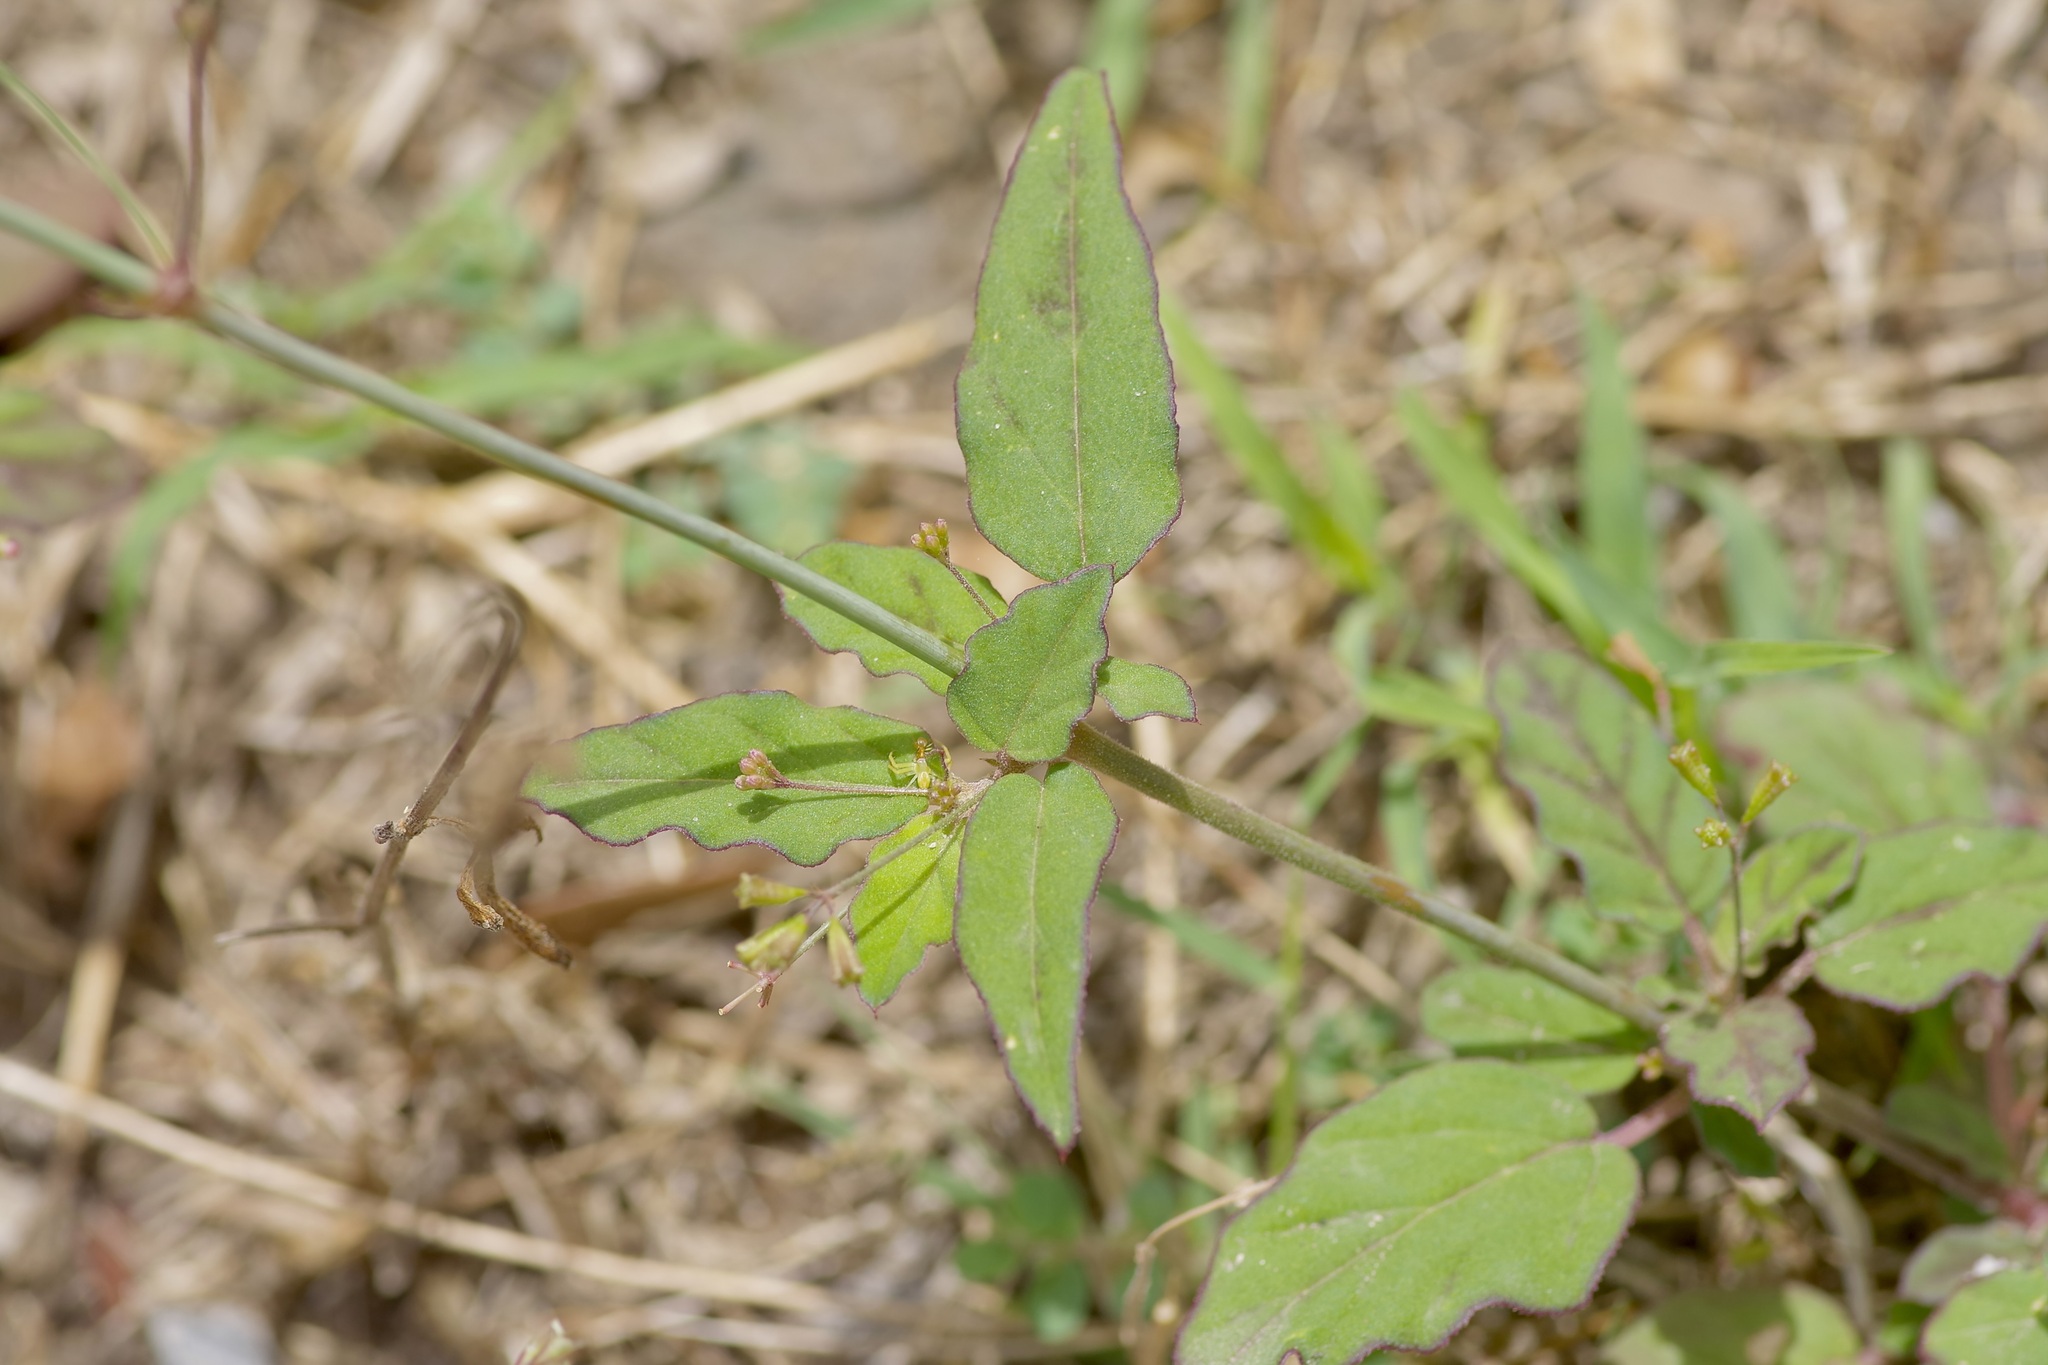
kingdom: Plantae
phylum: Tracheophyta
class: Magnoliopsida
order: Caryophyllales
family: Nyctaginaceae
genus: Boerhavia
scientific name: Boerhavia erecta
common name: Erect spiderling
